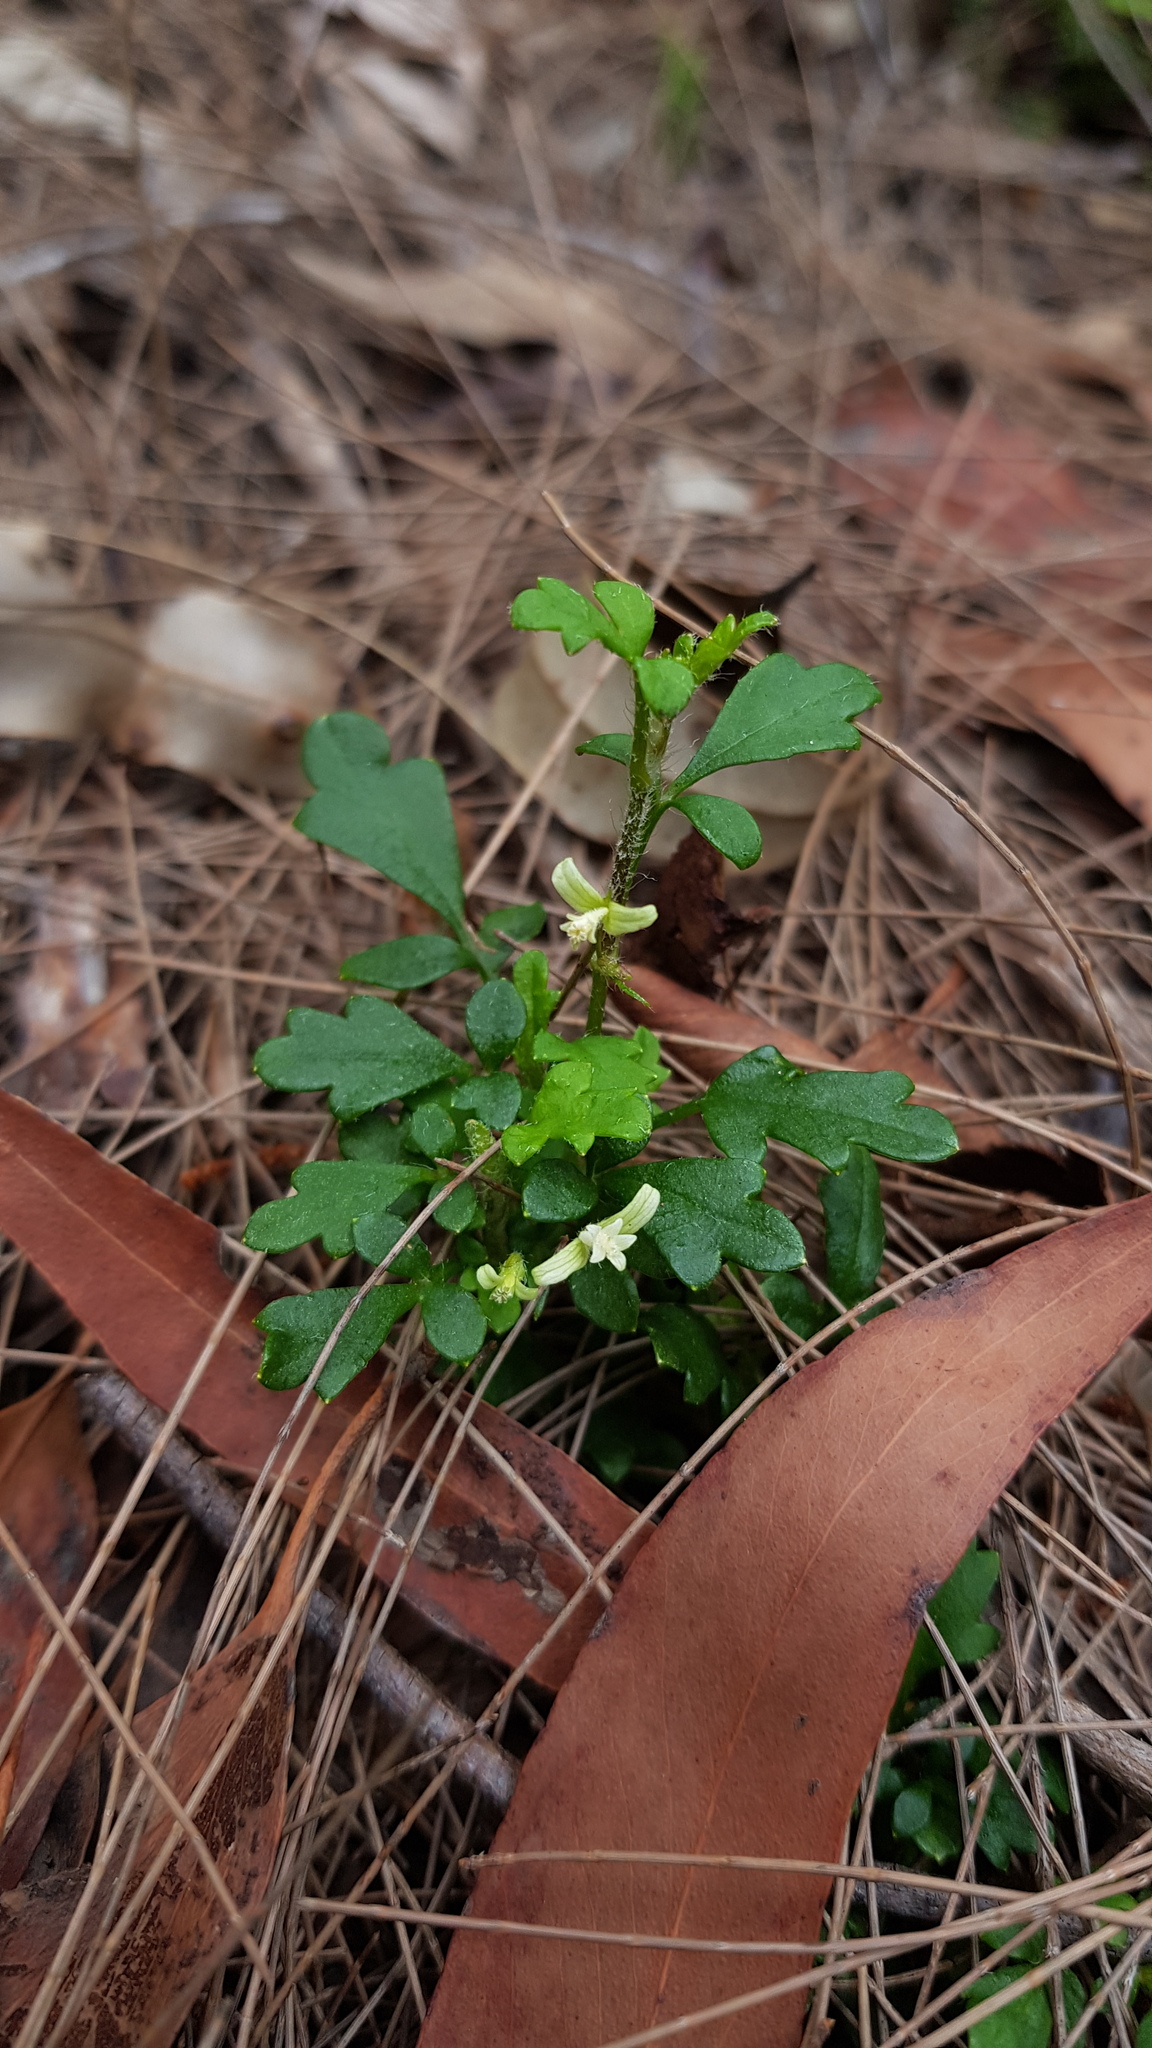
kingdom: Plantae
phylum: Tracheophyta
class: Magnoliopsida
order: Apiales
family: Apiaceae
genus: Xanthosia
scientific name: Xanthosia pilosa
